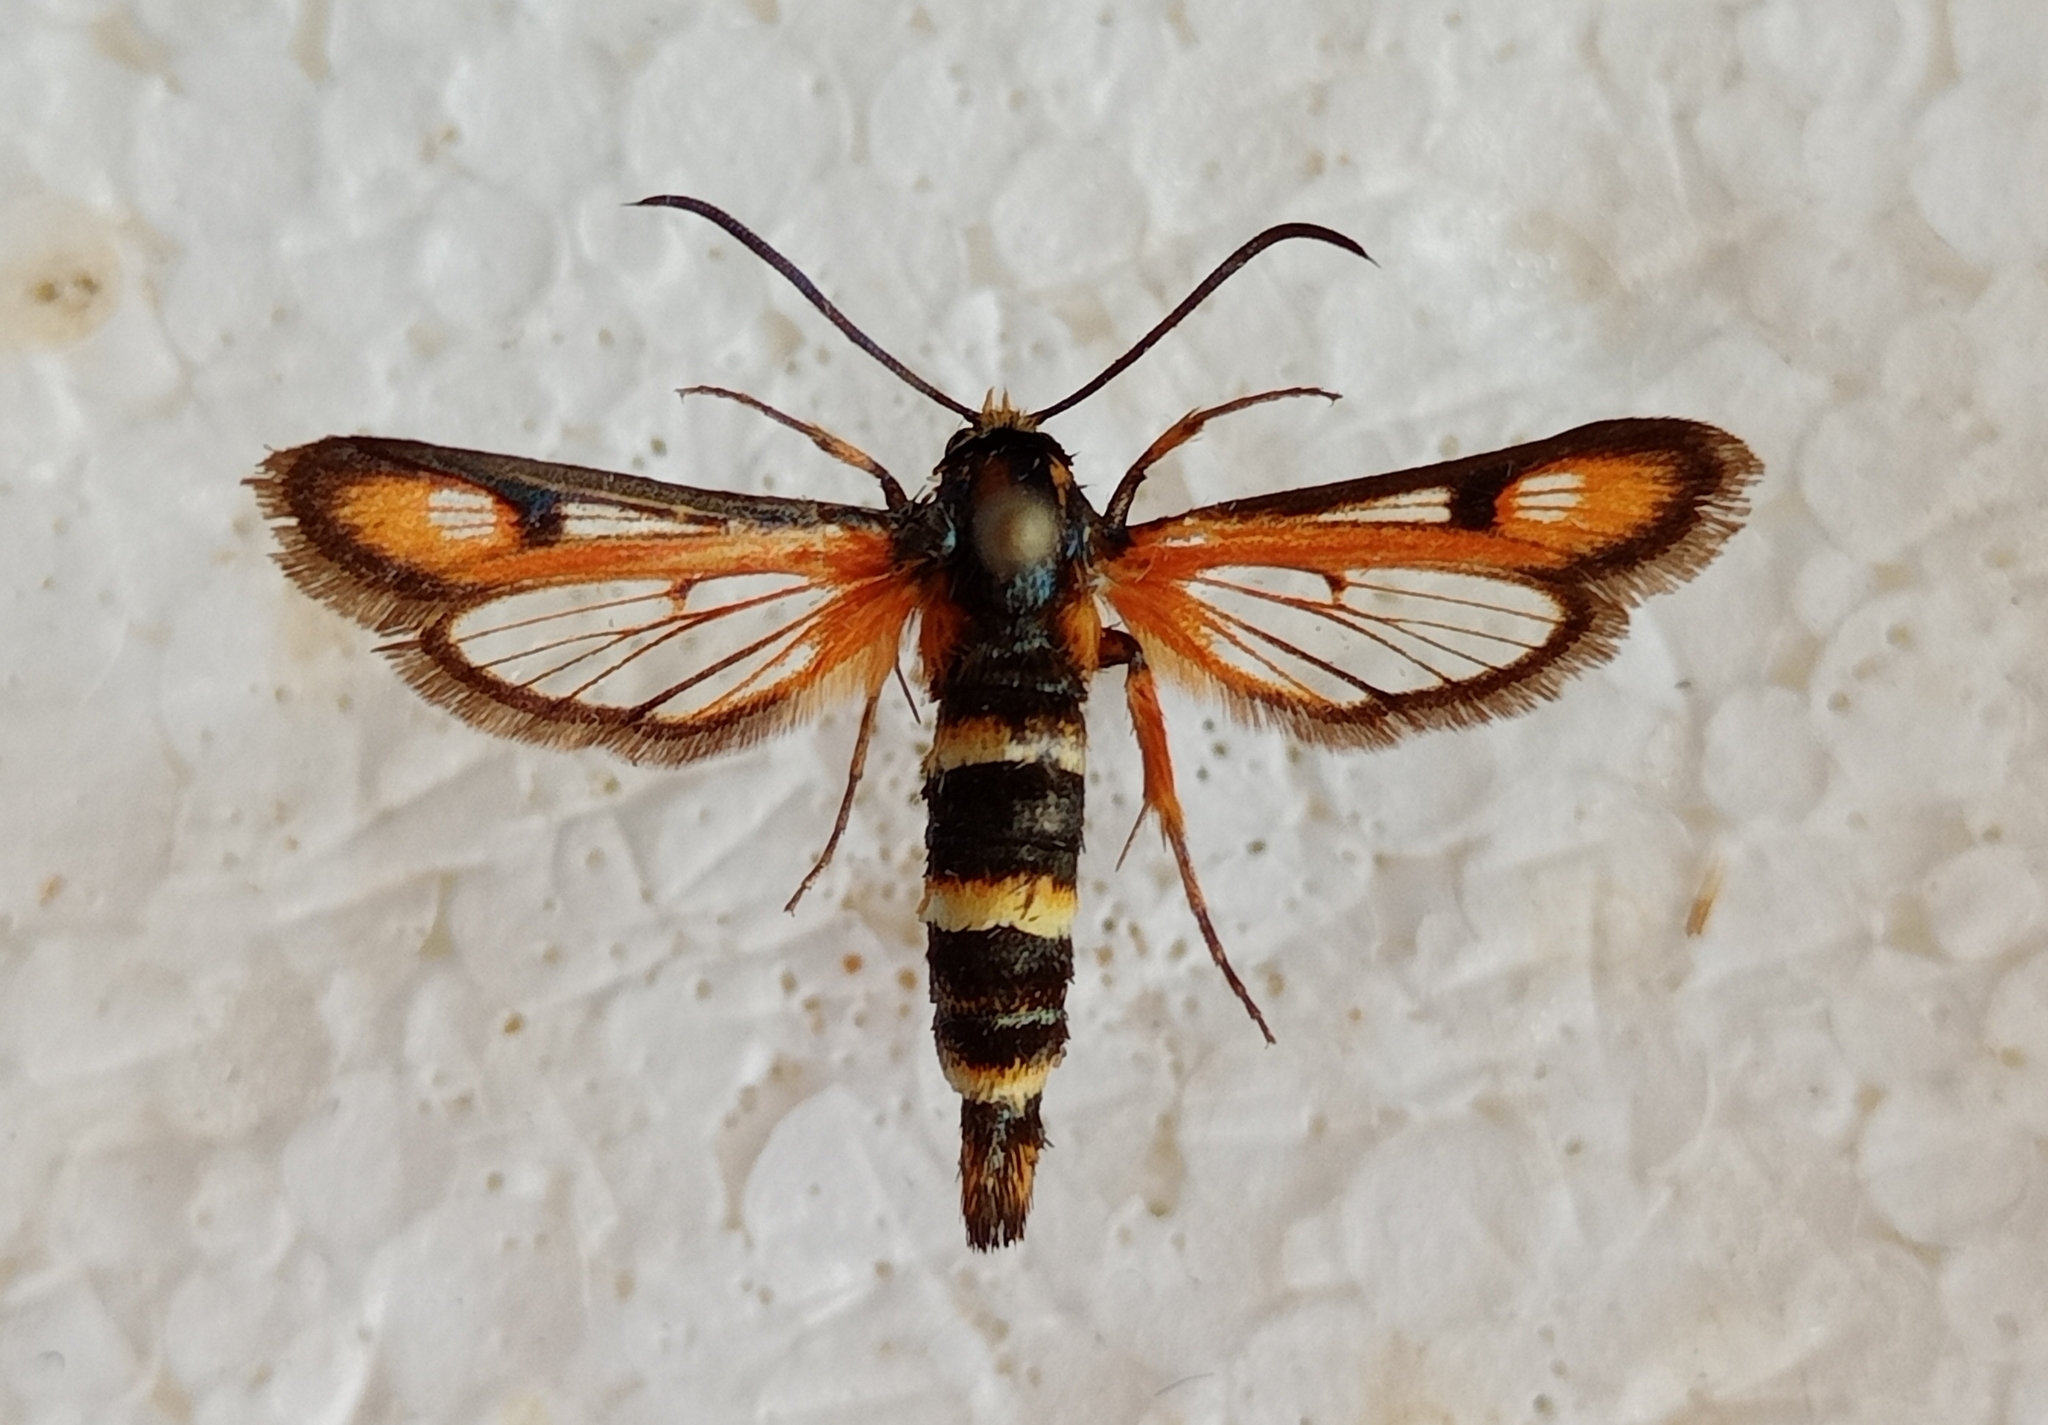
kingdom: Animalia
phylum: Arthropoda
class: Insecta
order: Lepidoptera
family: Sesiidae
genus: Bembecia
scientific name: Bembecia turanica
